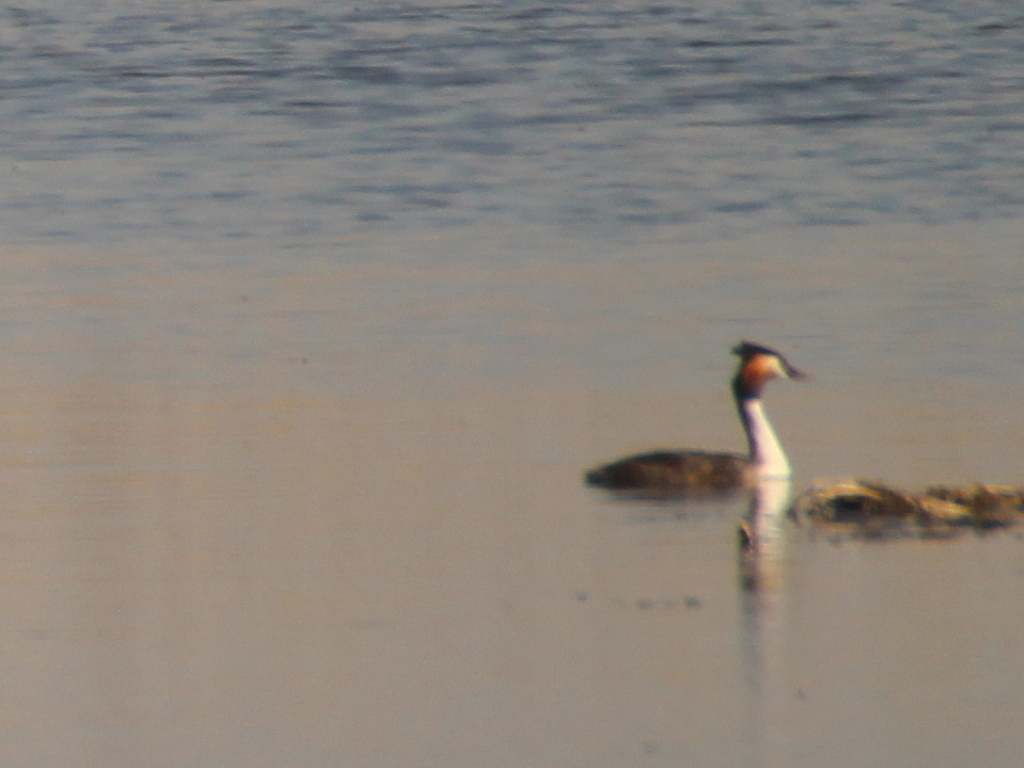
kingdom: Animalia
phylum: Chordata
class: Aves
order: Podicipediformes
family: Podicipedidae
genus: Podiceps
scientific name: Podiceps cristatus
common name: Great crested grebe
